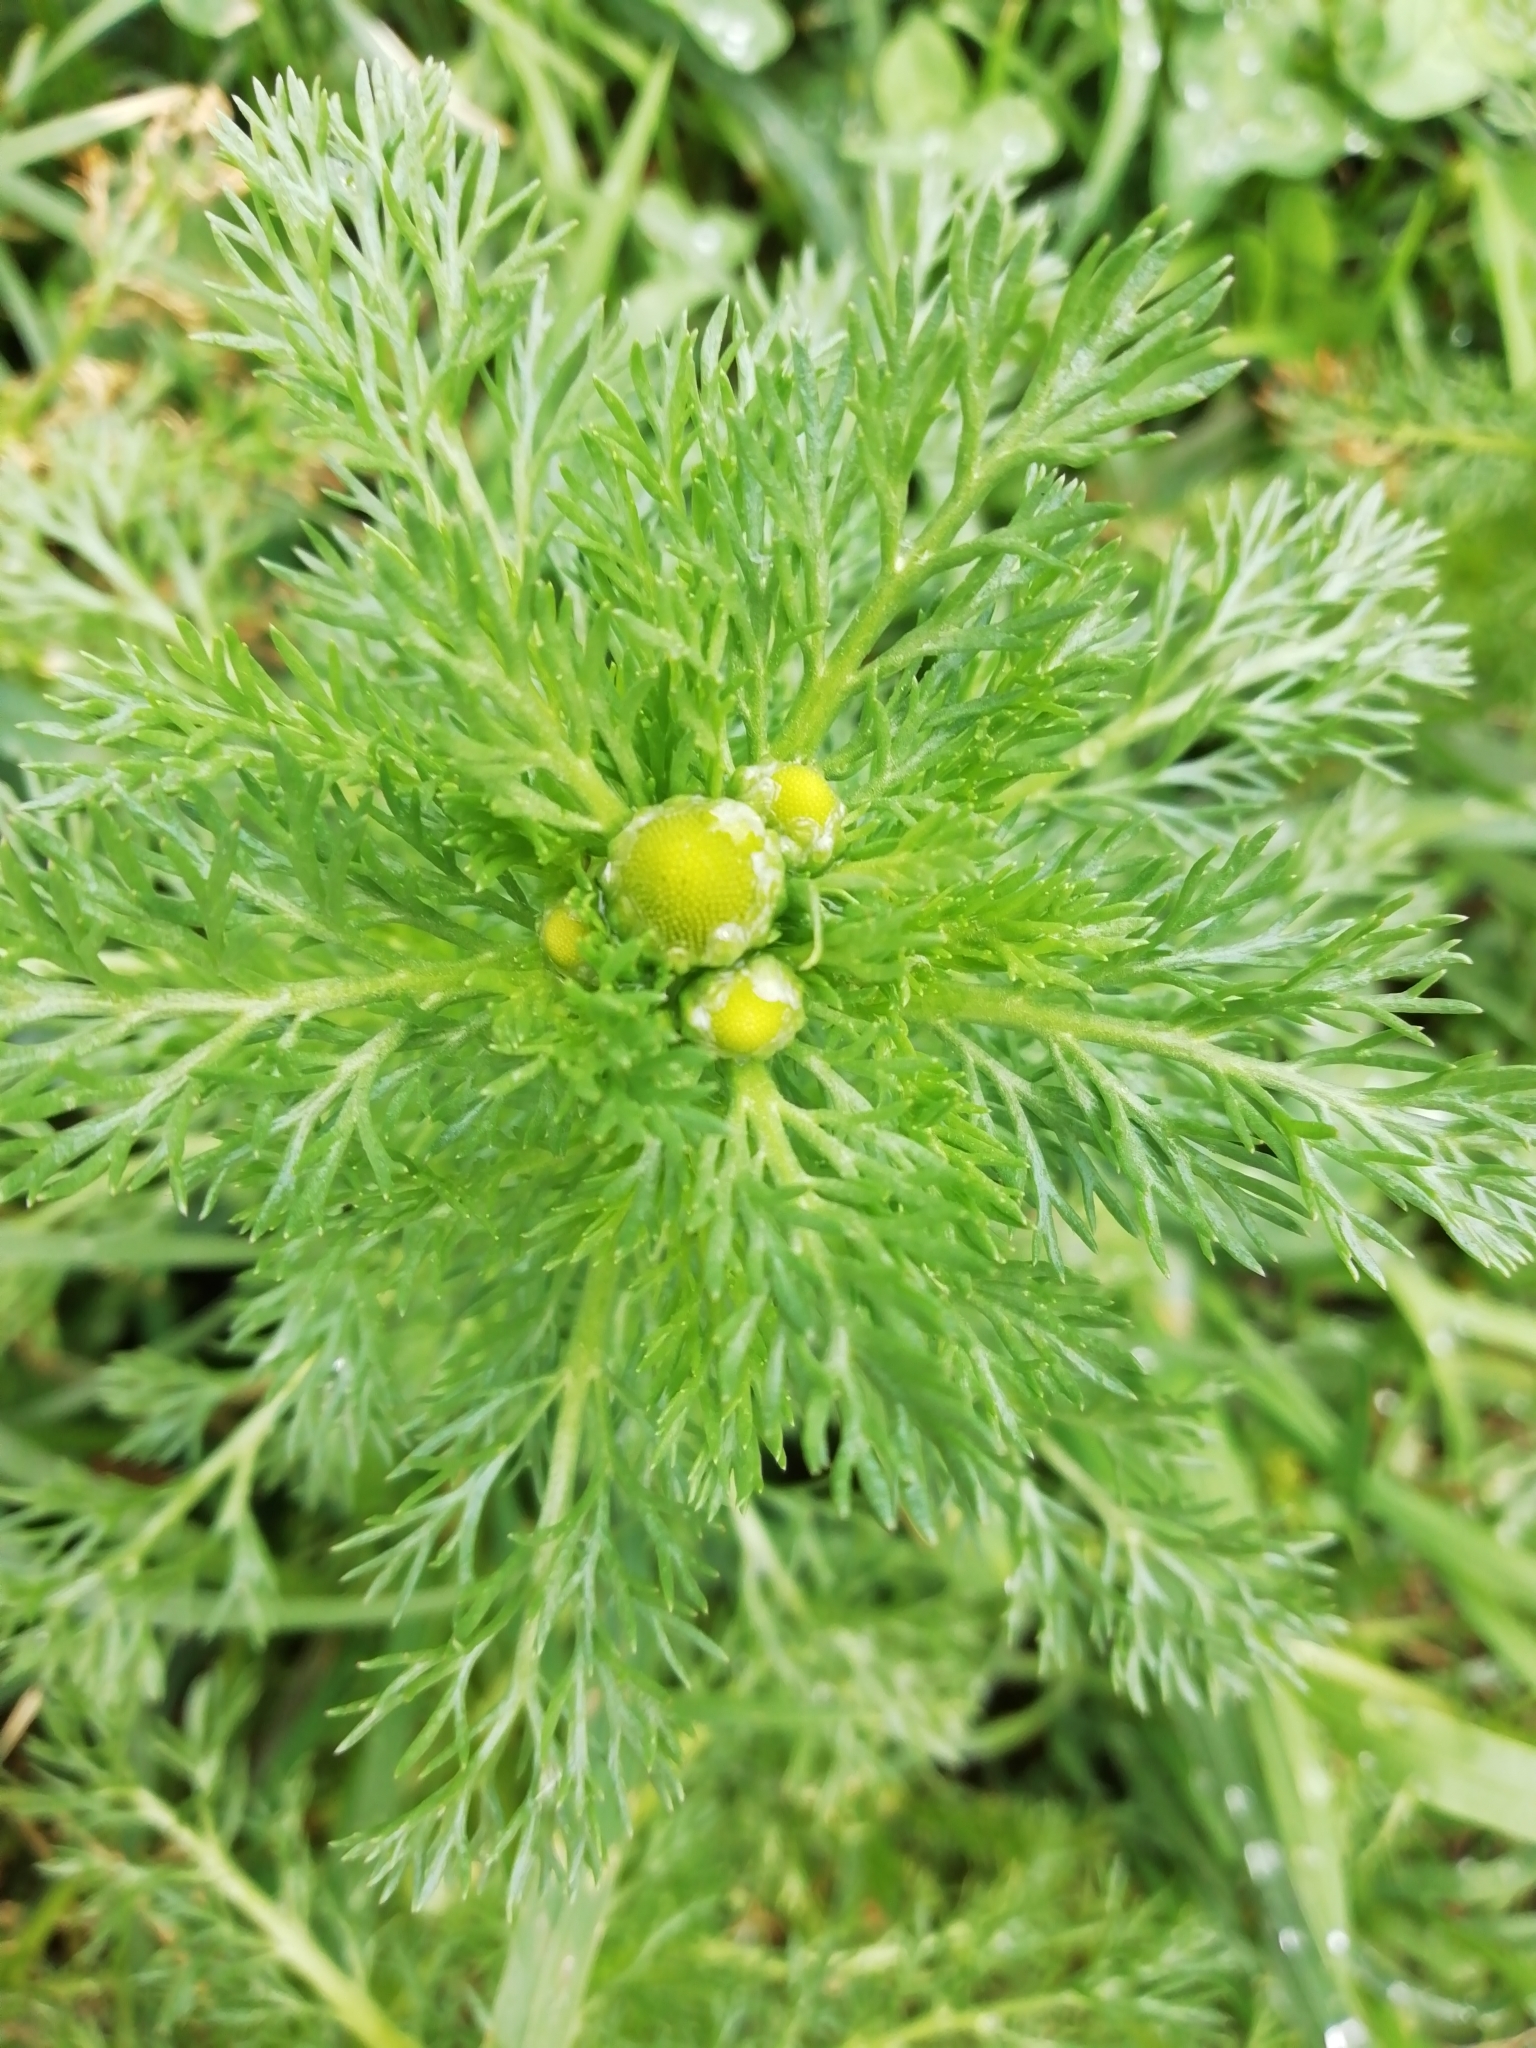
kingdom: Plantae
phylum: Tracheophyta
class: Magnoliopsida
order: Asterales
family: Asteraceae
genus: Matricaria
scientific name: Matricaria discoidea
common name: Disc mayweed
